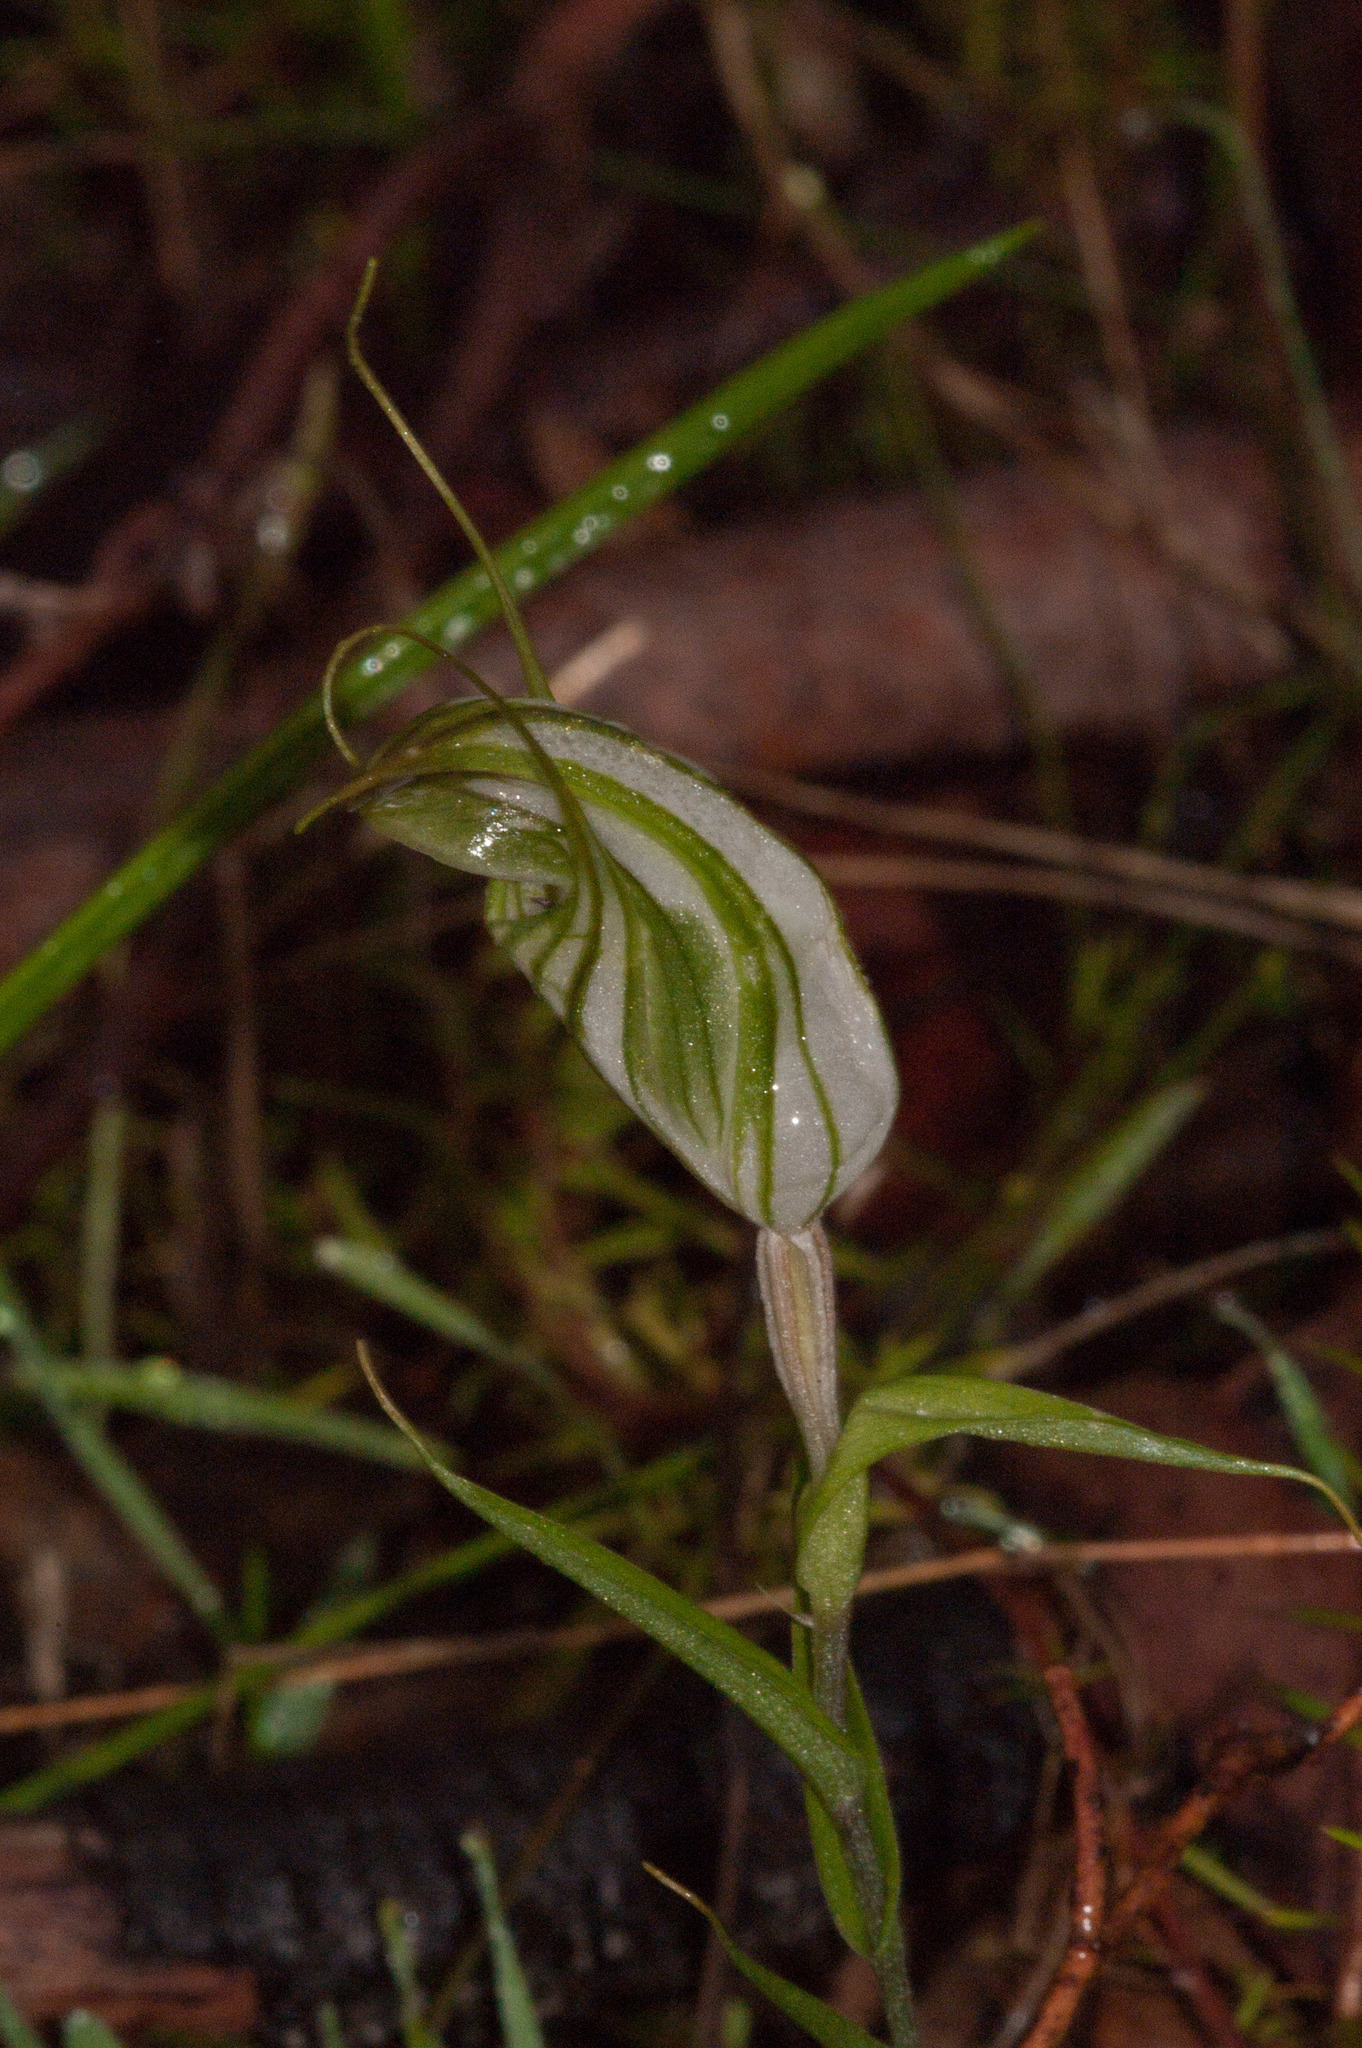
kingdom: Plantae
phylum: Tracheophyta
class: Liliopsida
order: Asparagales
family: Orchidaceae
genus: Pterostylis
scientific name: Pterostylis robusta
